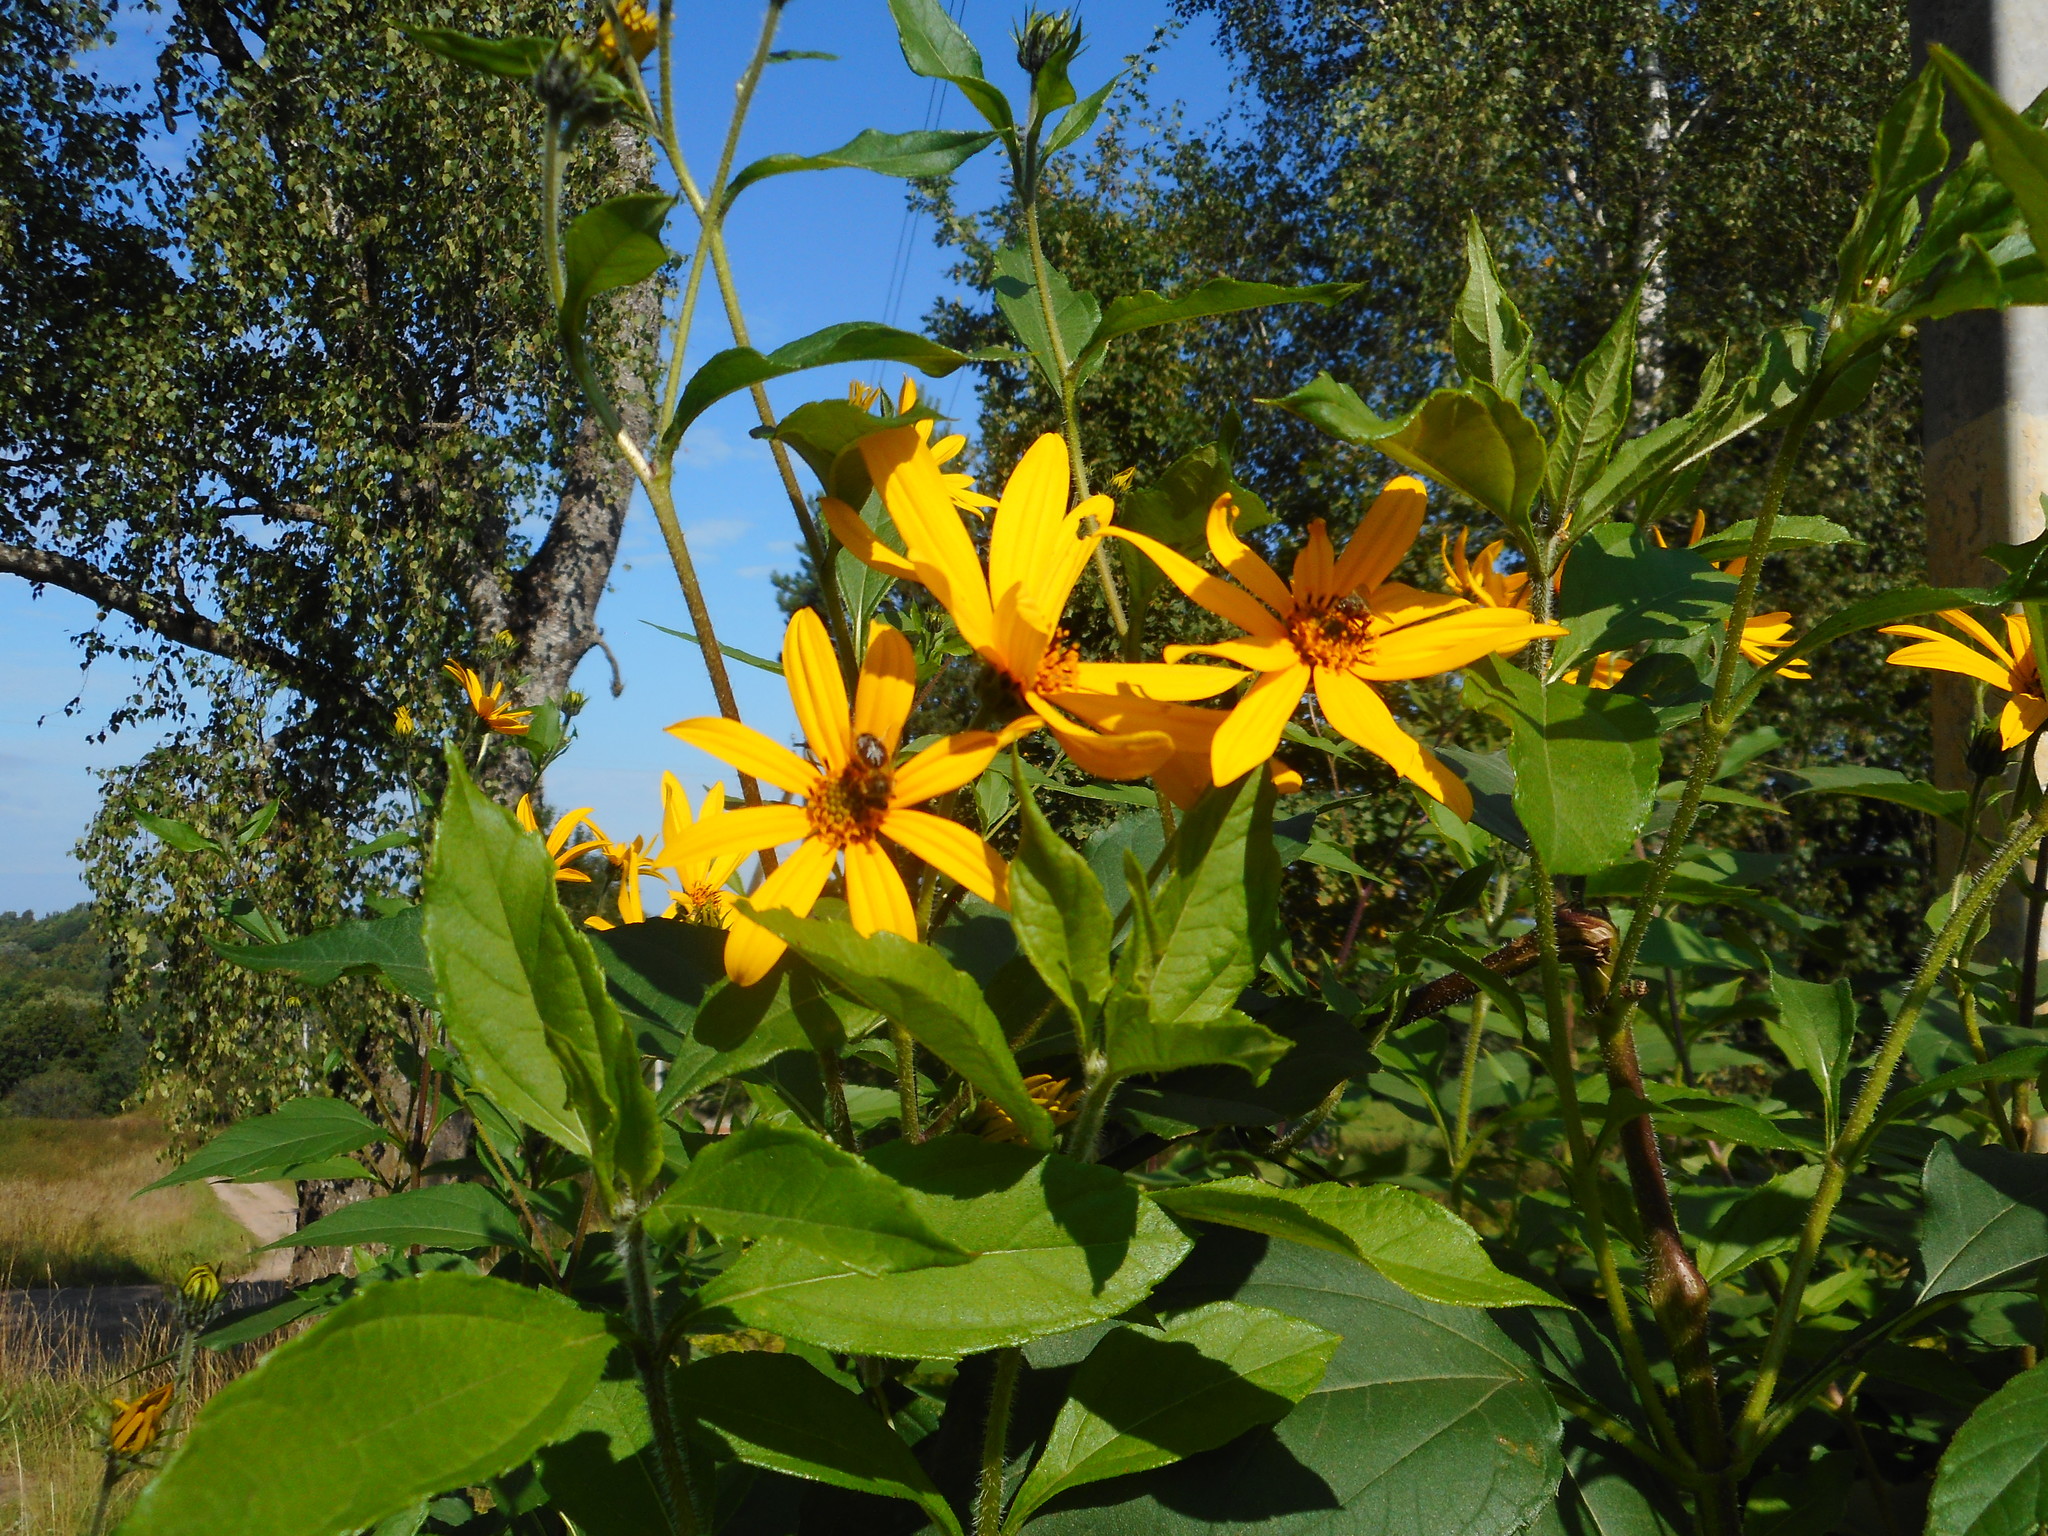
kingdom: Plantae
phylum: Tracheophyta
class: Magnoliopsida
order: Asterales
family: Asteraceae
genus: Helianthus
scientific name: Helianthus tuberosus
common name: Jerusalem artichoke
